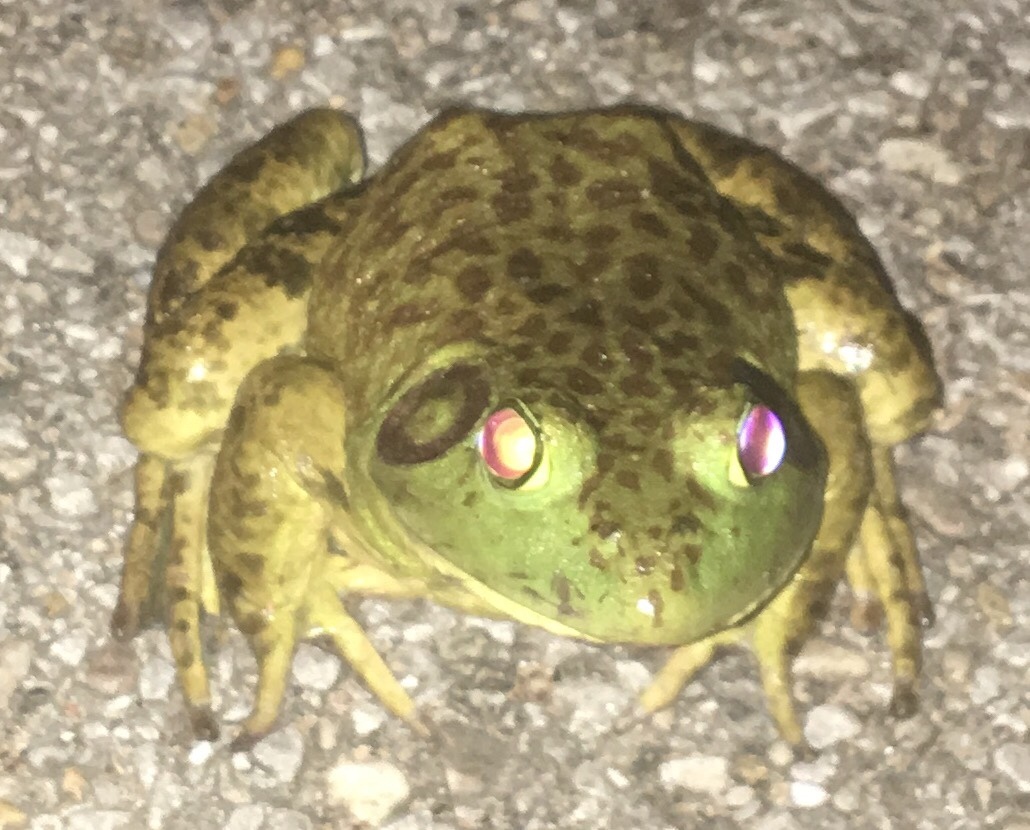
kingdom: Animalia
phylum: Chordata
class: Amphibia
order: Anura
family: Ranidae
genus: Lithobates
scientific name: Lithobates catesbeianus
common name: American bullfrog
